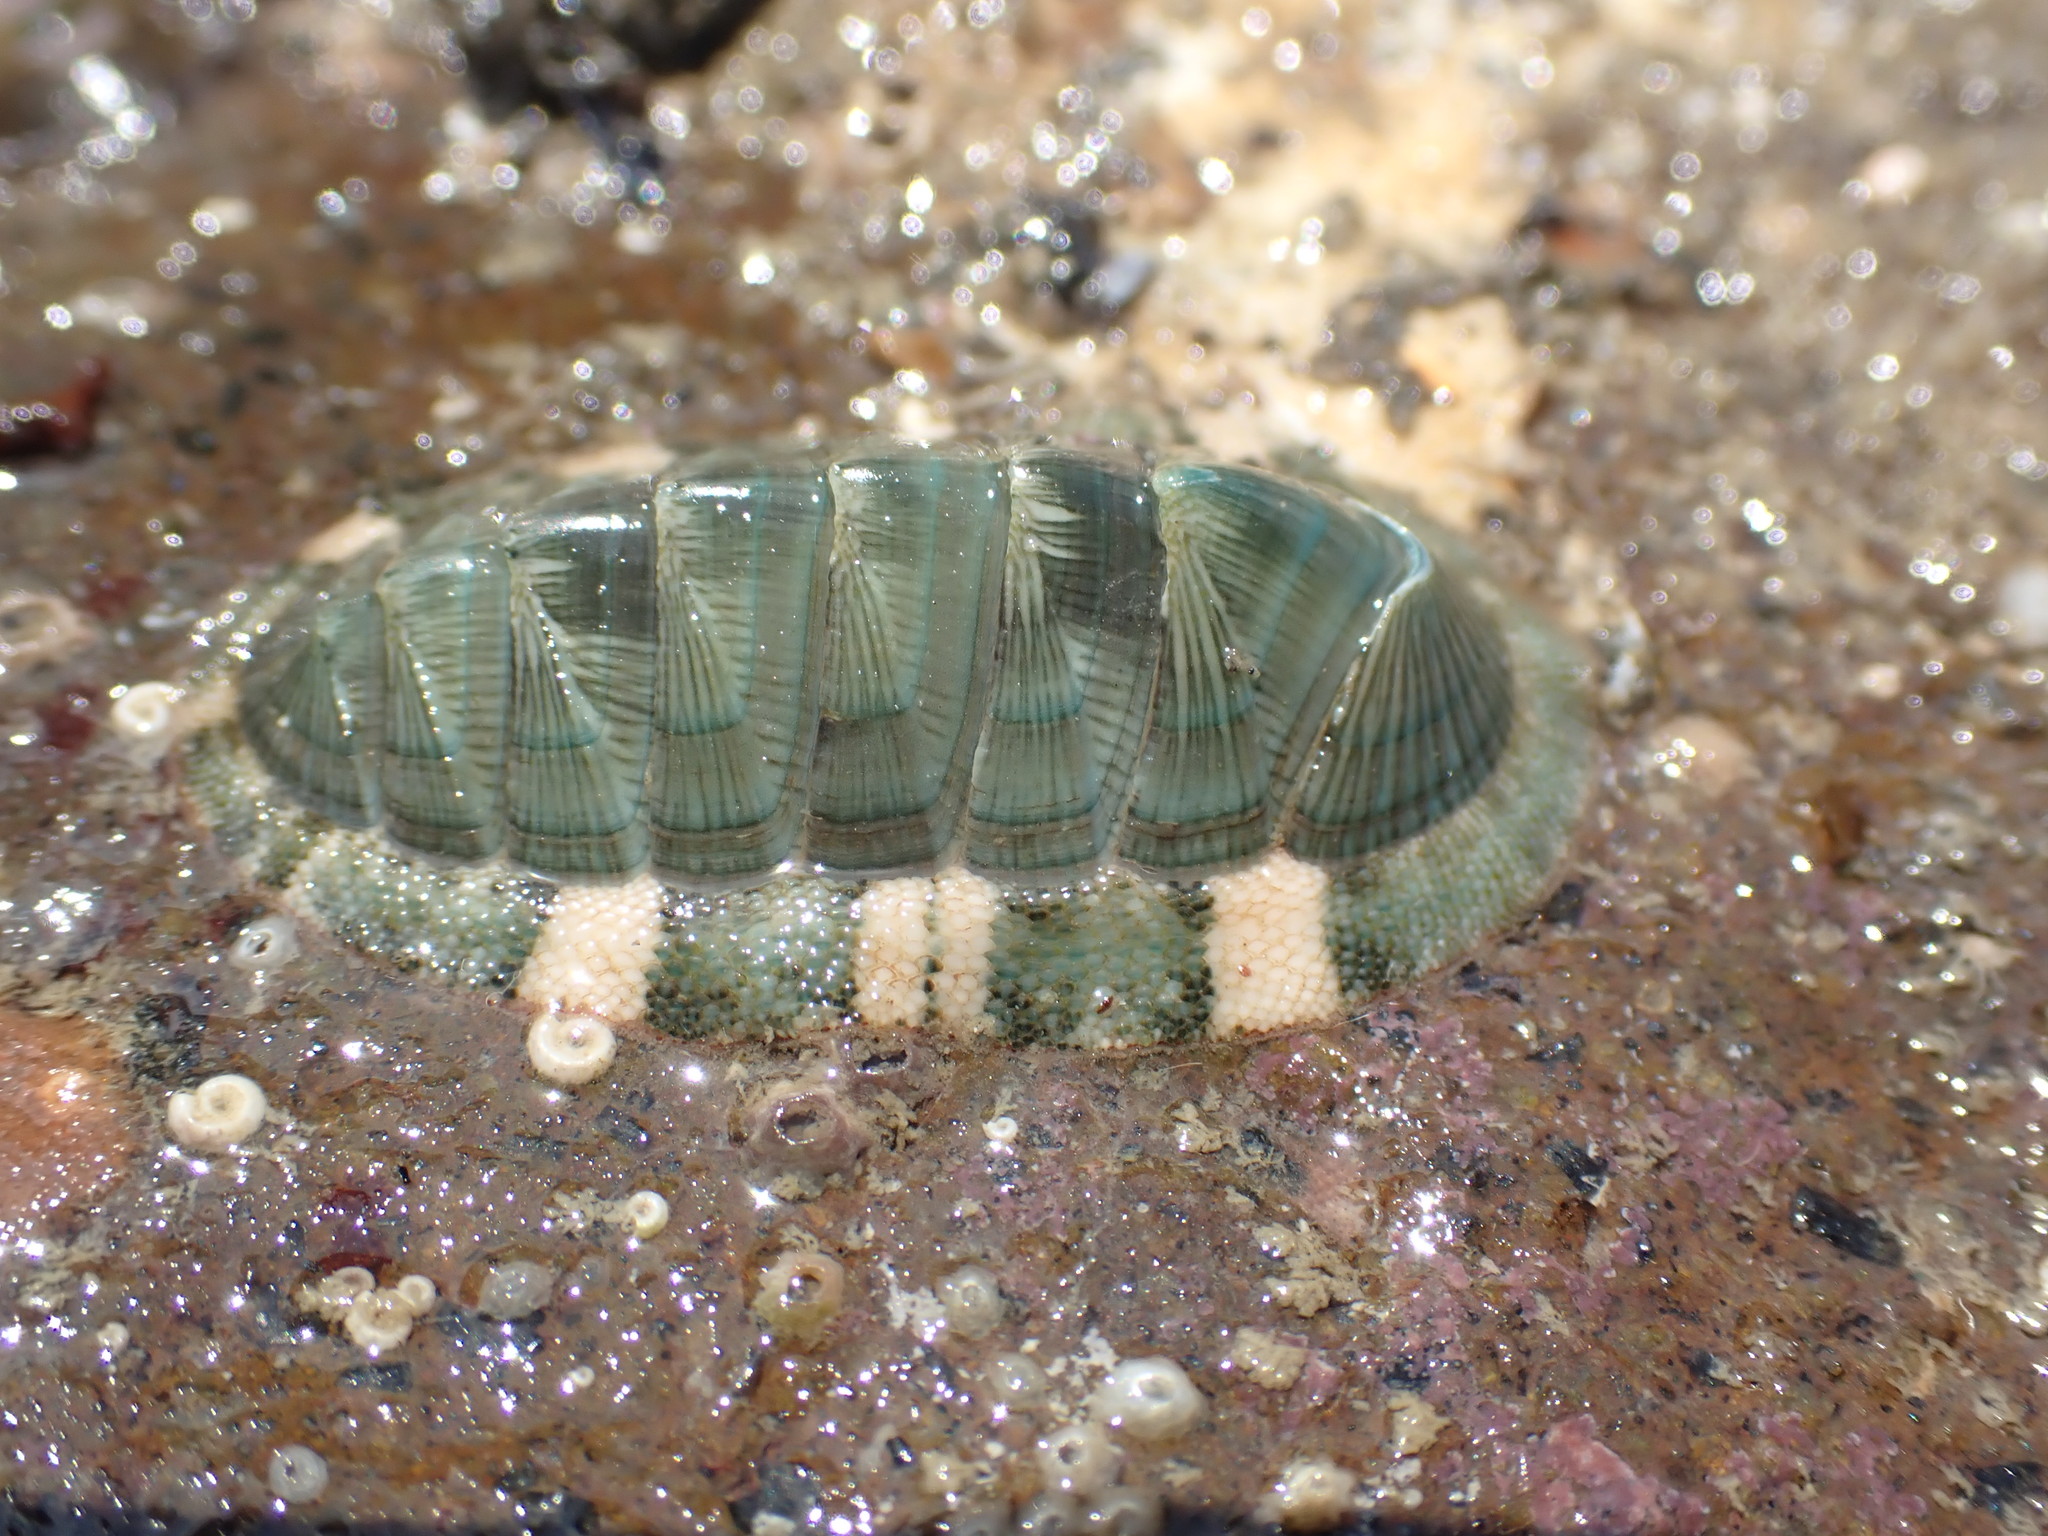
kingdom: Animalia
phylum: Mollusca
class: Polyplacophora
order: Chitonida
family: Chitonidae
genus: Rhyssoplax
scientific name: Rhyssoplax aerea
